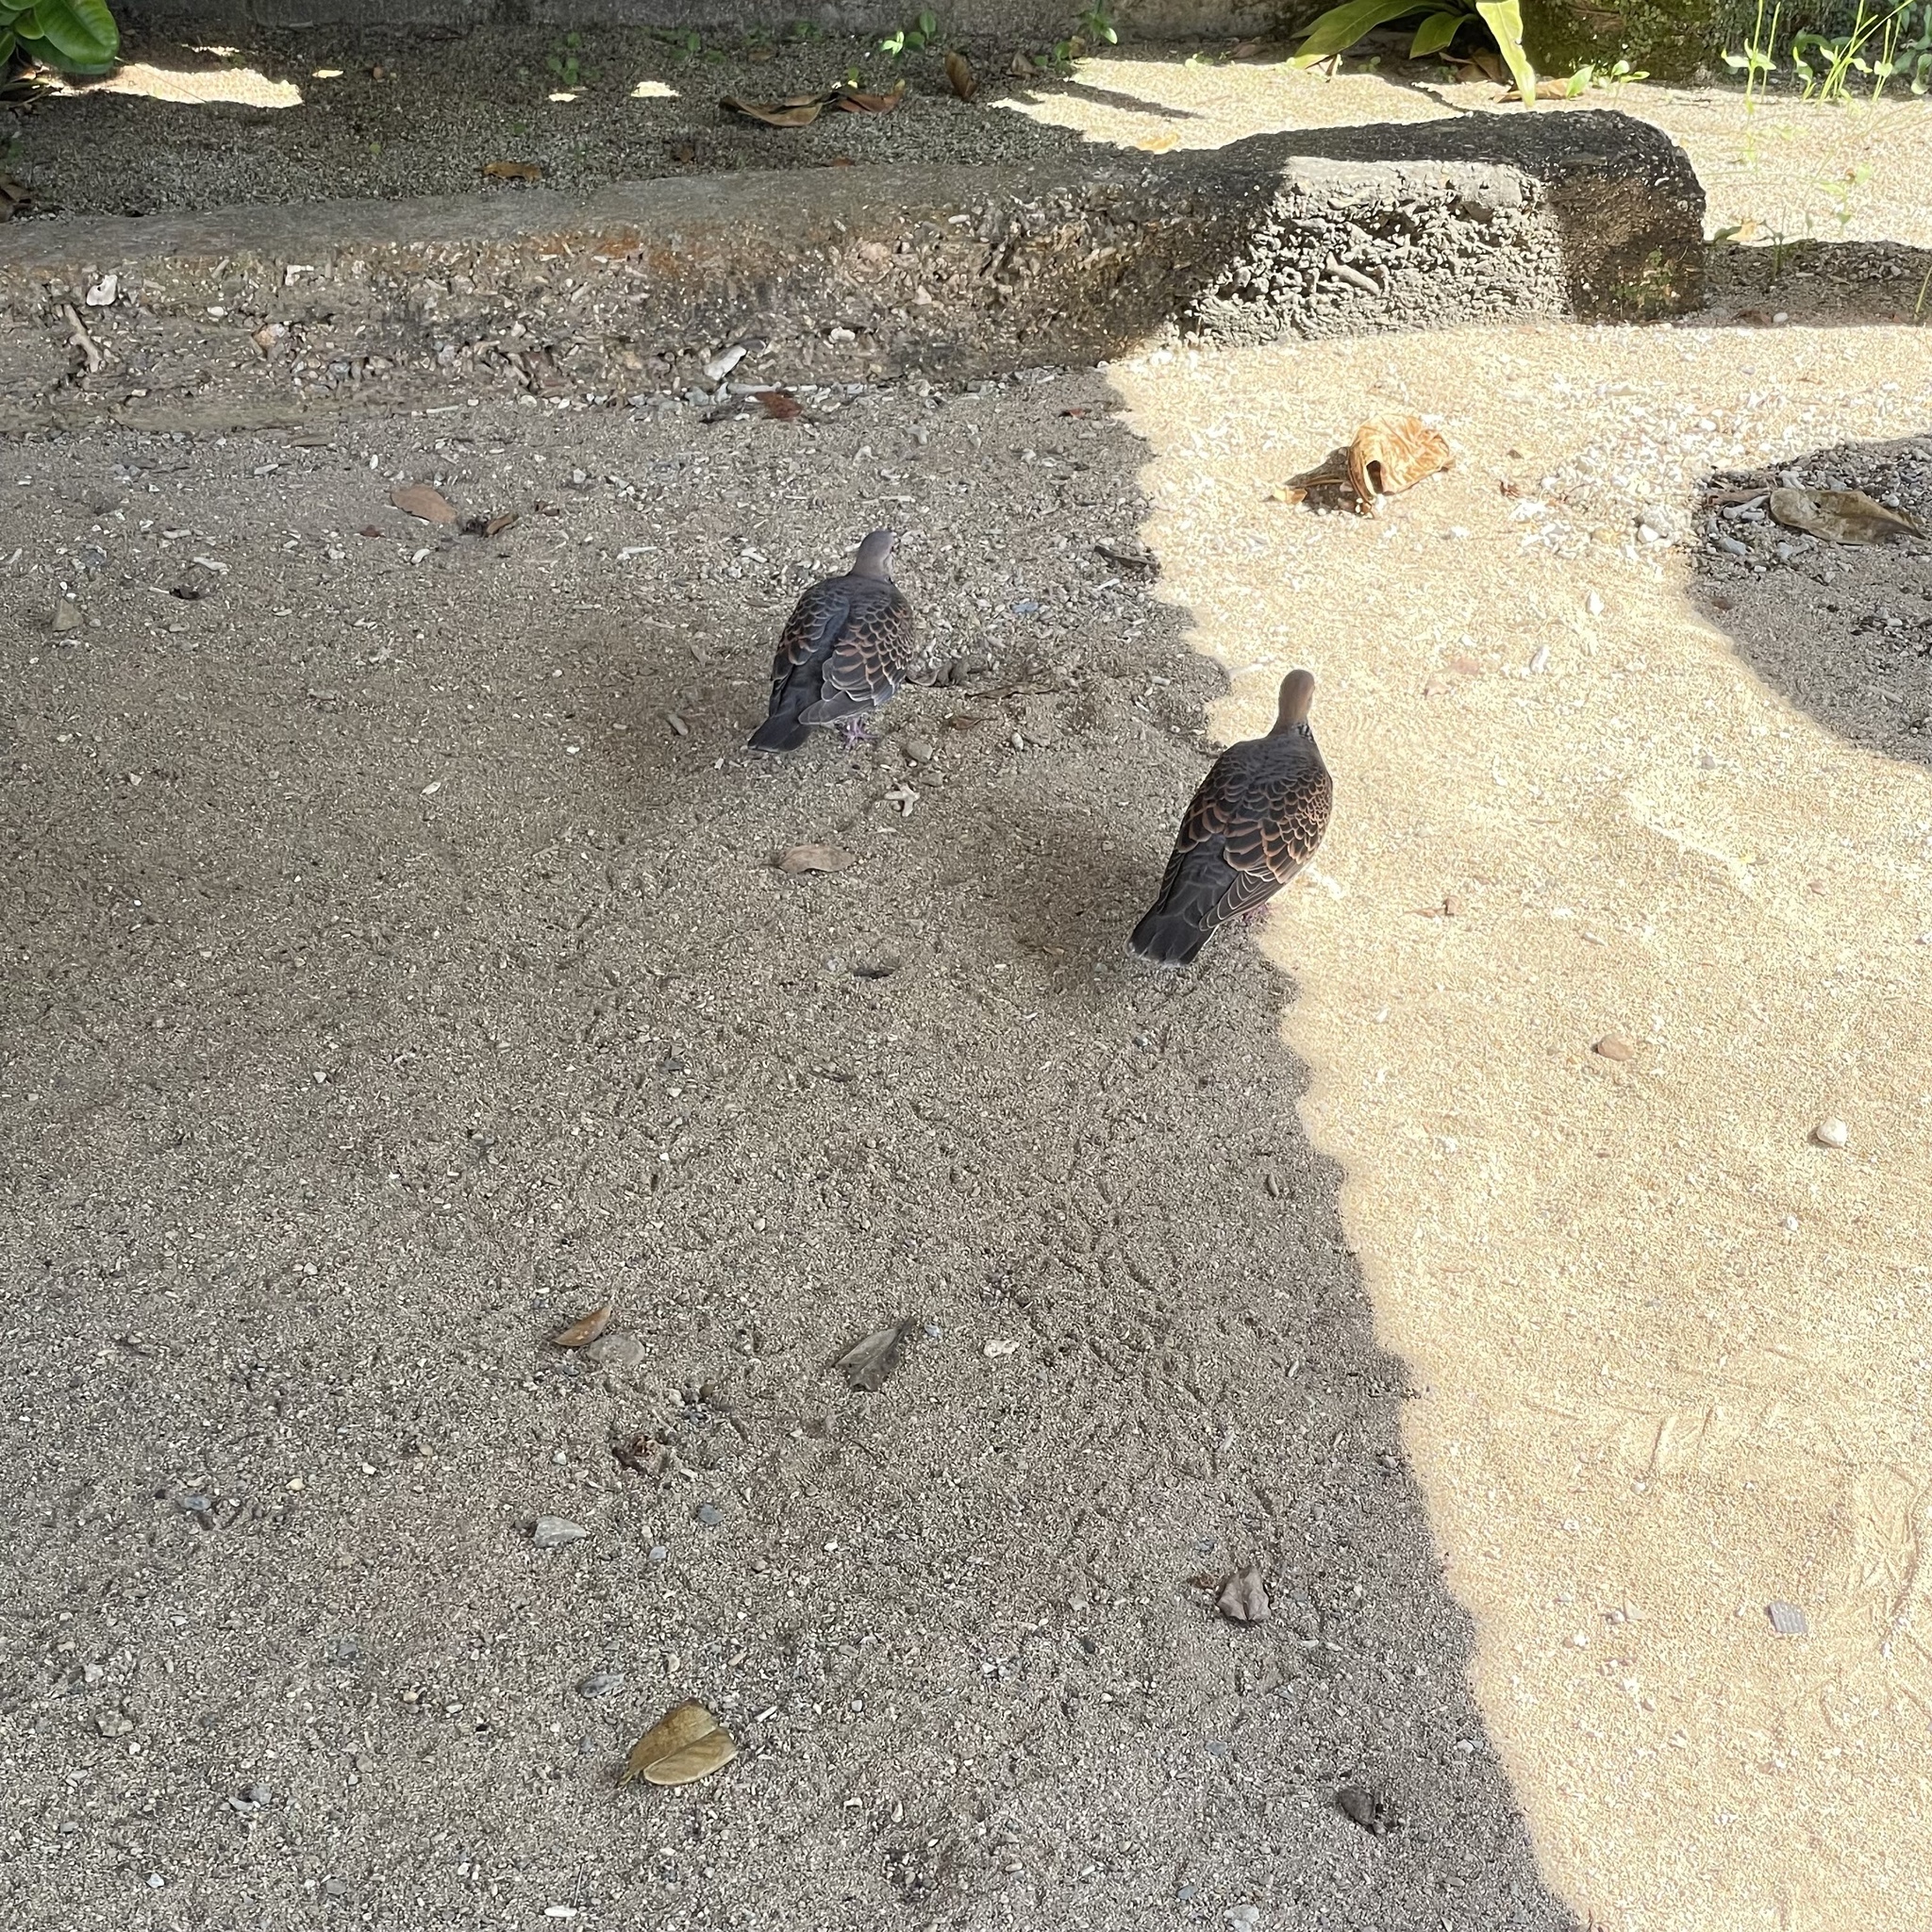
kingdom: Animalia
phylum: Chordata
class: Aves
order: Columbiformes
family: Columbidae
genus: Streptopelia
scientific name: Streptopelia orientalis
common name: Oriental turtle dove
